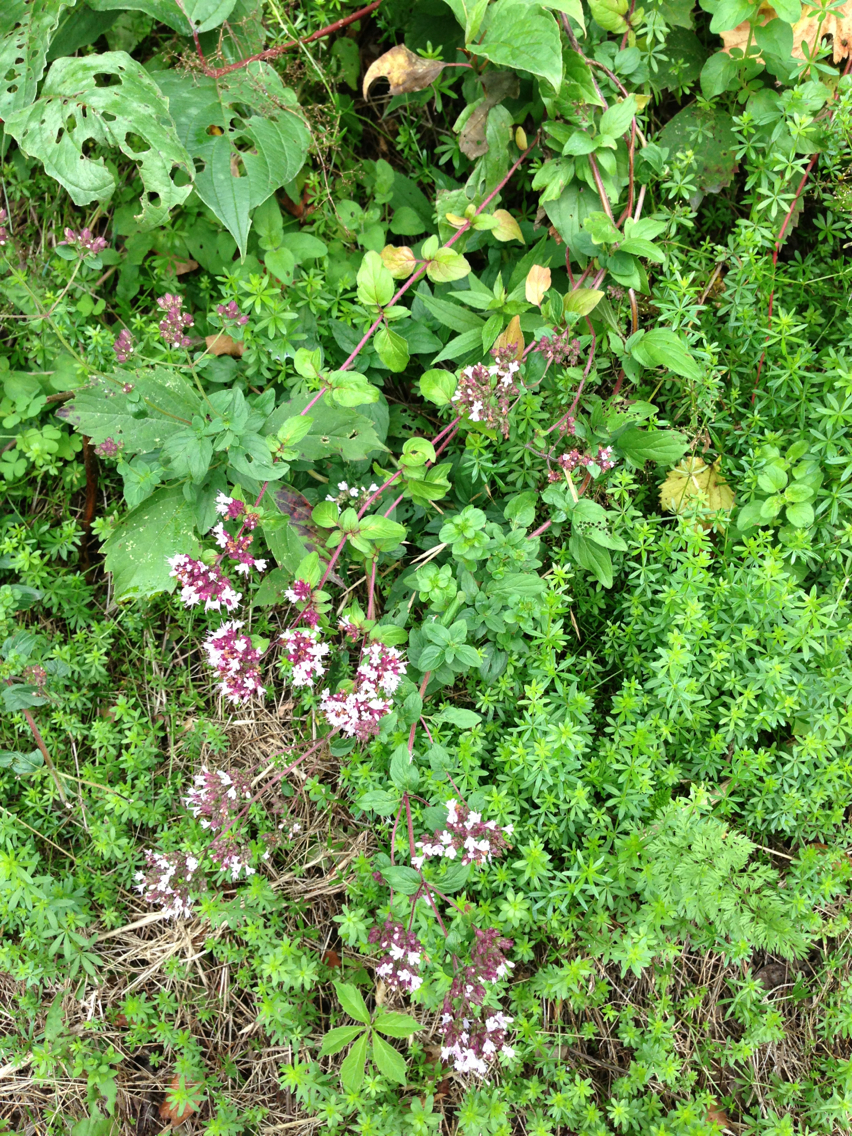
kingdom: Plantae
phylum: Tracheophyta
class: Magnoliopsida
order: Lamiales
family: Lamiaceae
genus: Origanum
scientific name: Origanum vulgare
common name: Wild marjoram
